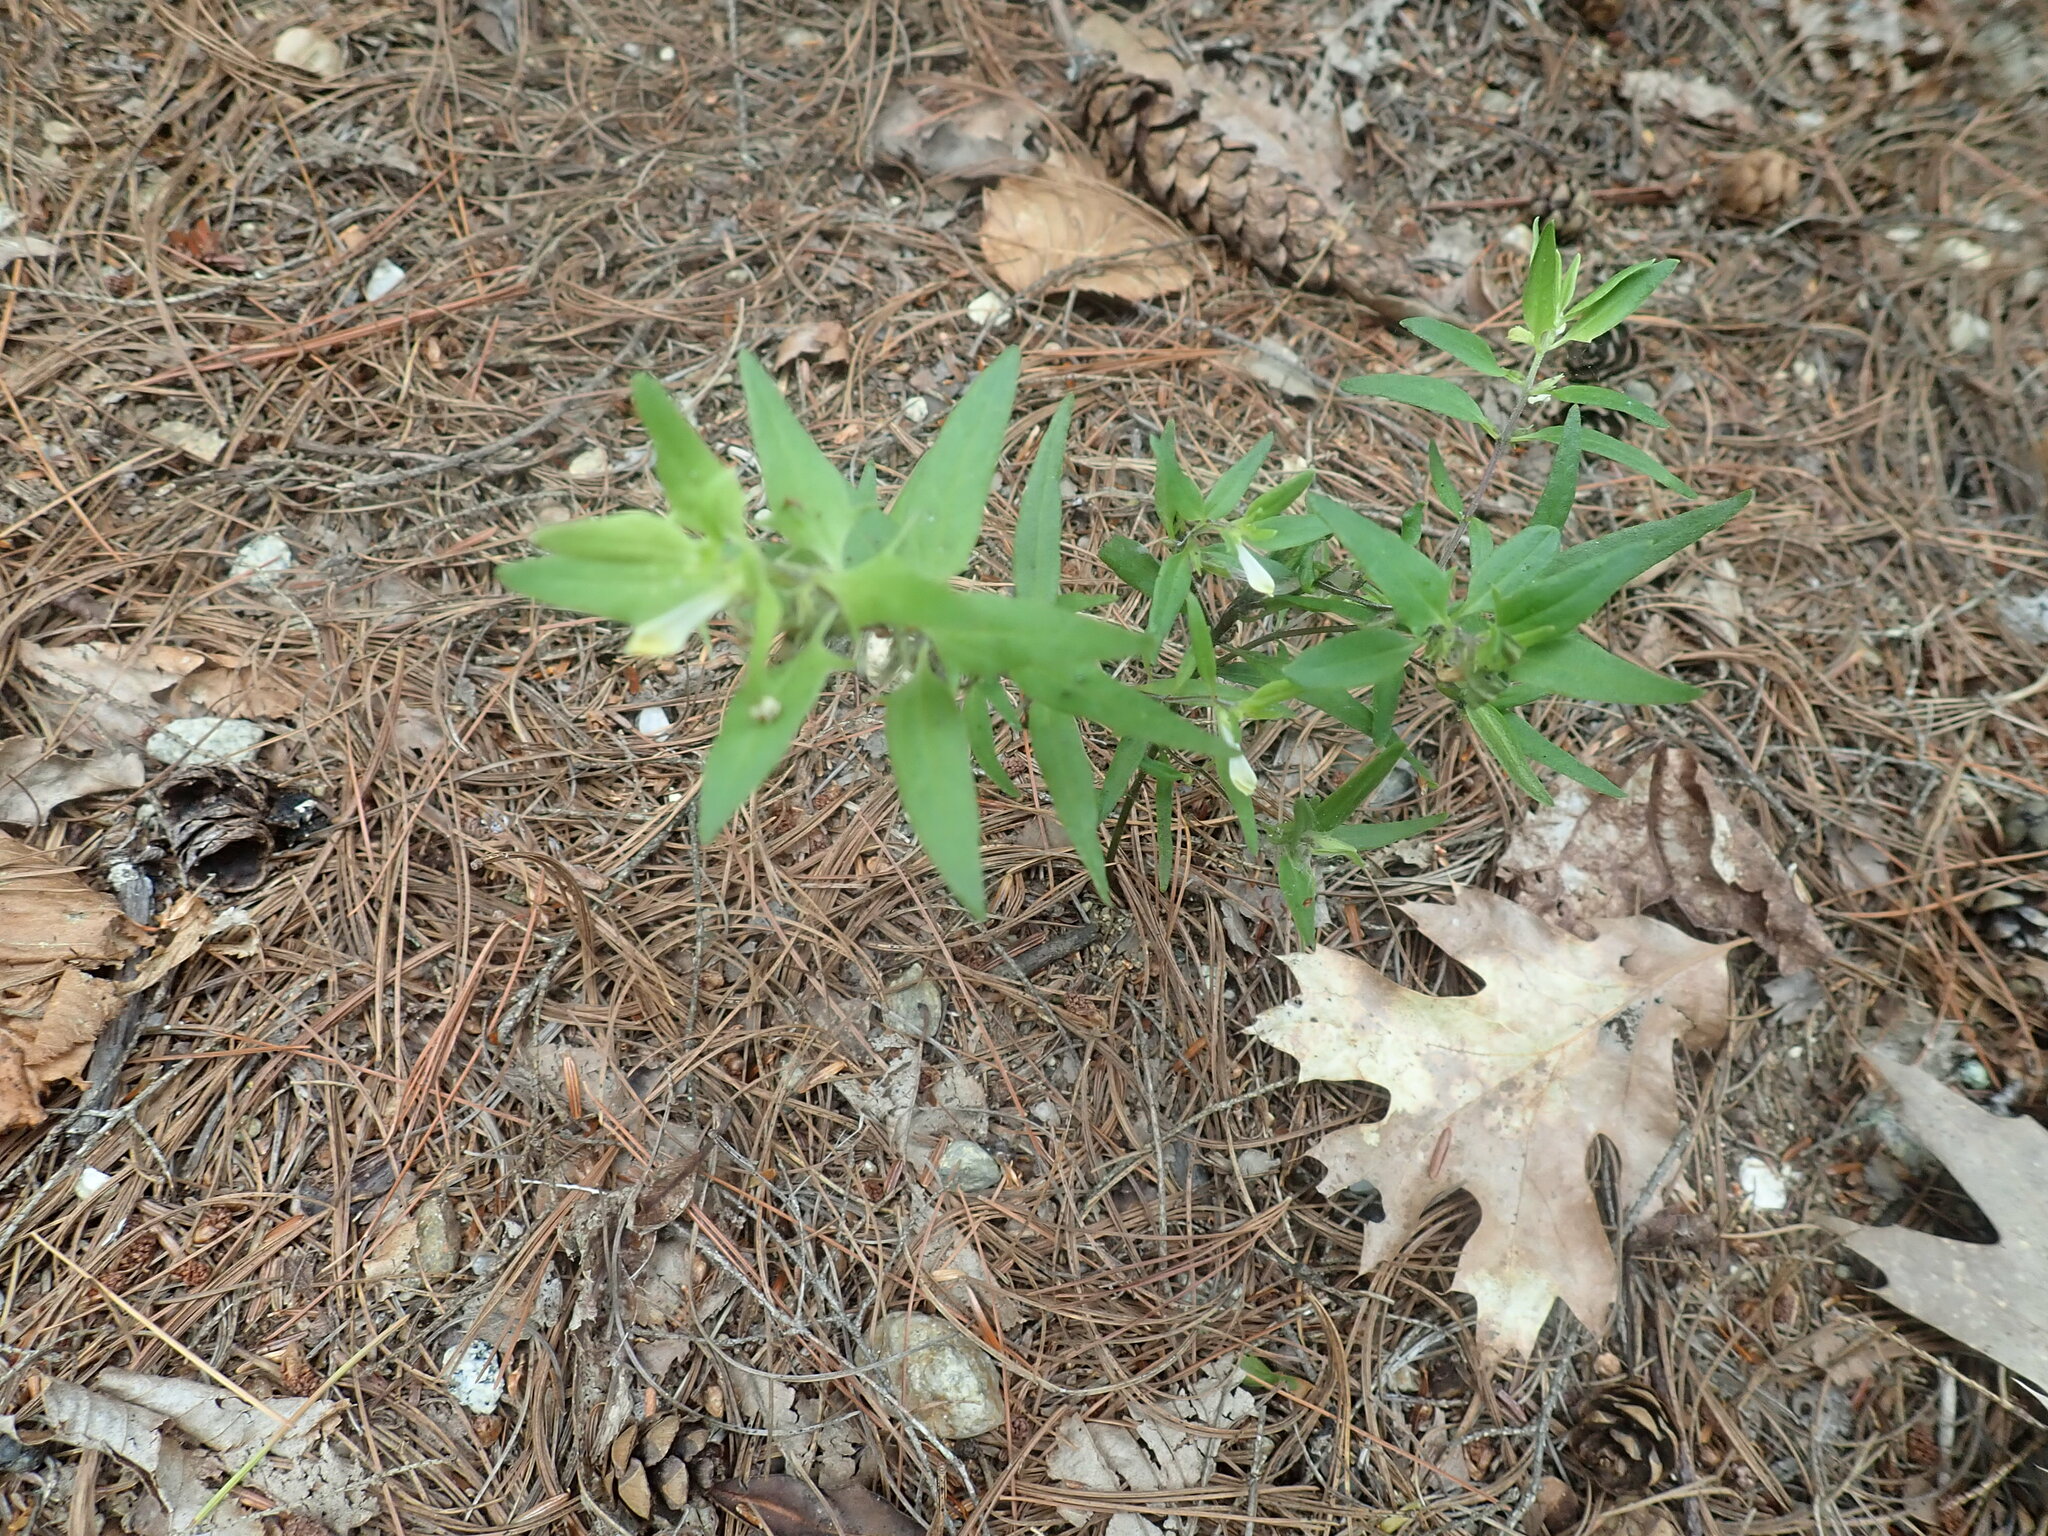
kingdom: Plantae
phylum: Tracheophyta
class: Magnoliopsida
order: Lamiales
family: Orobanchaceae
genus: Melampyrum
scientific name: Melampyrum lineare
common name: American cow-wheat
